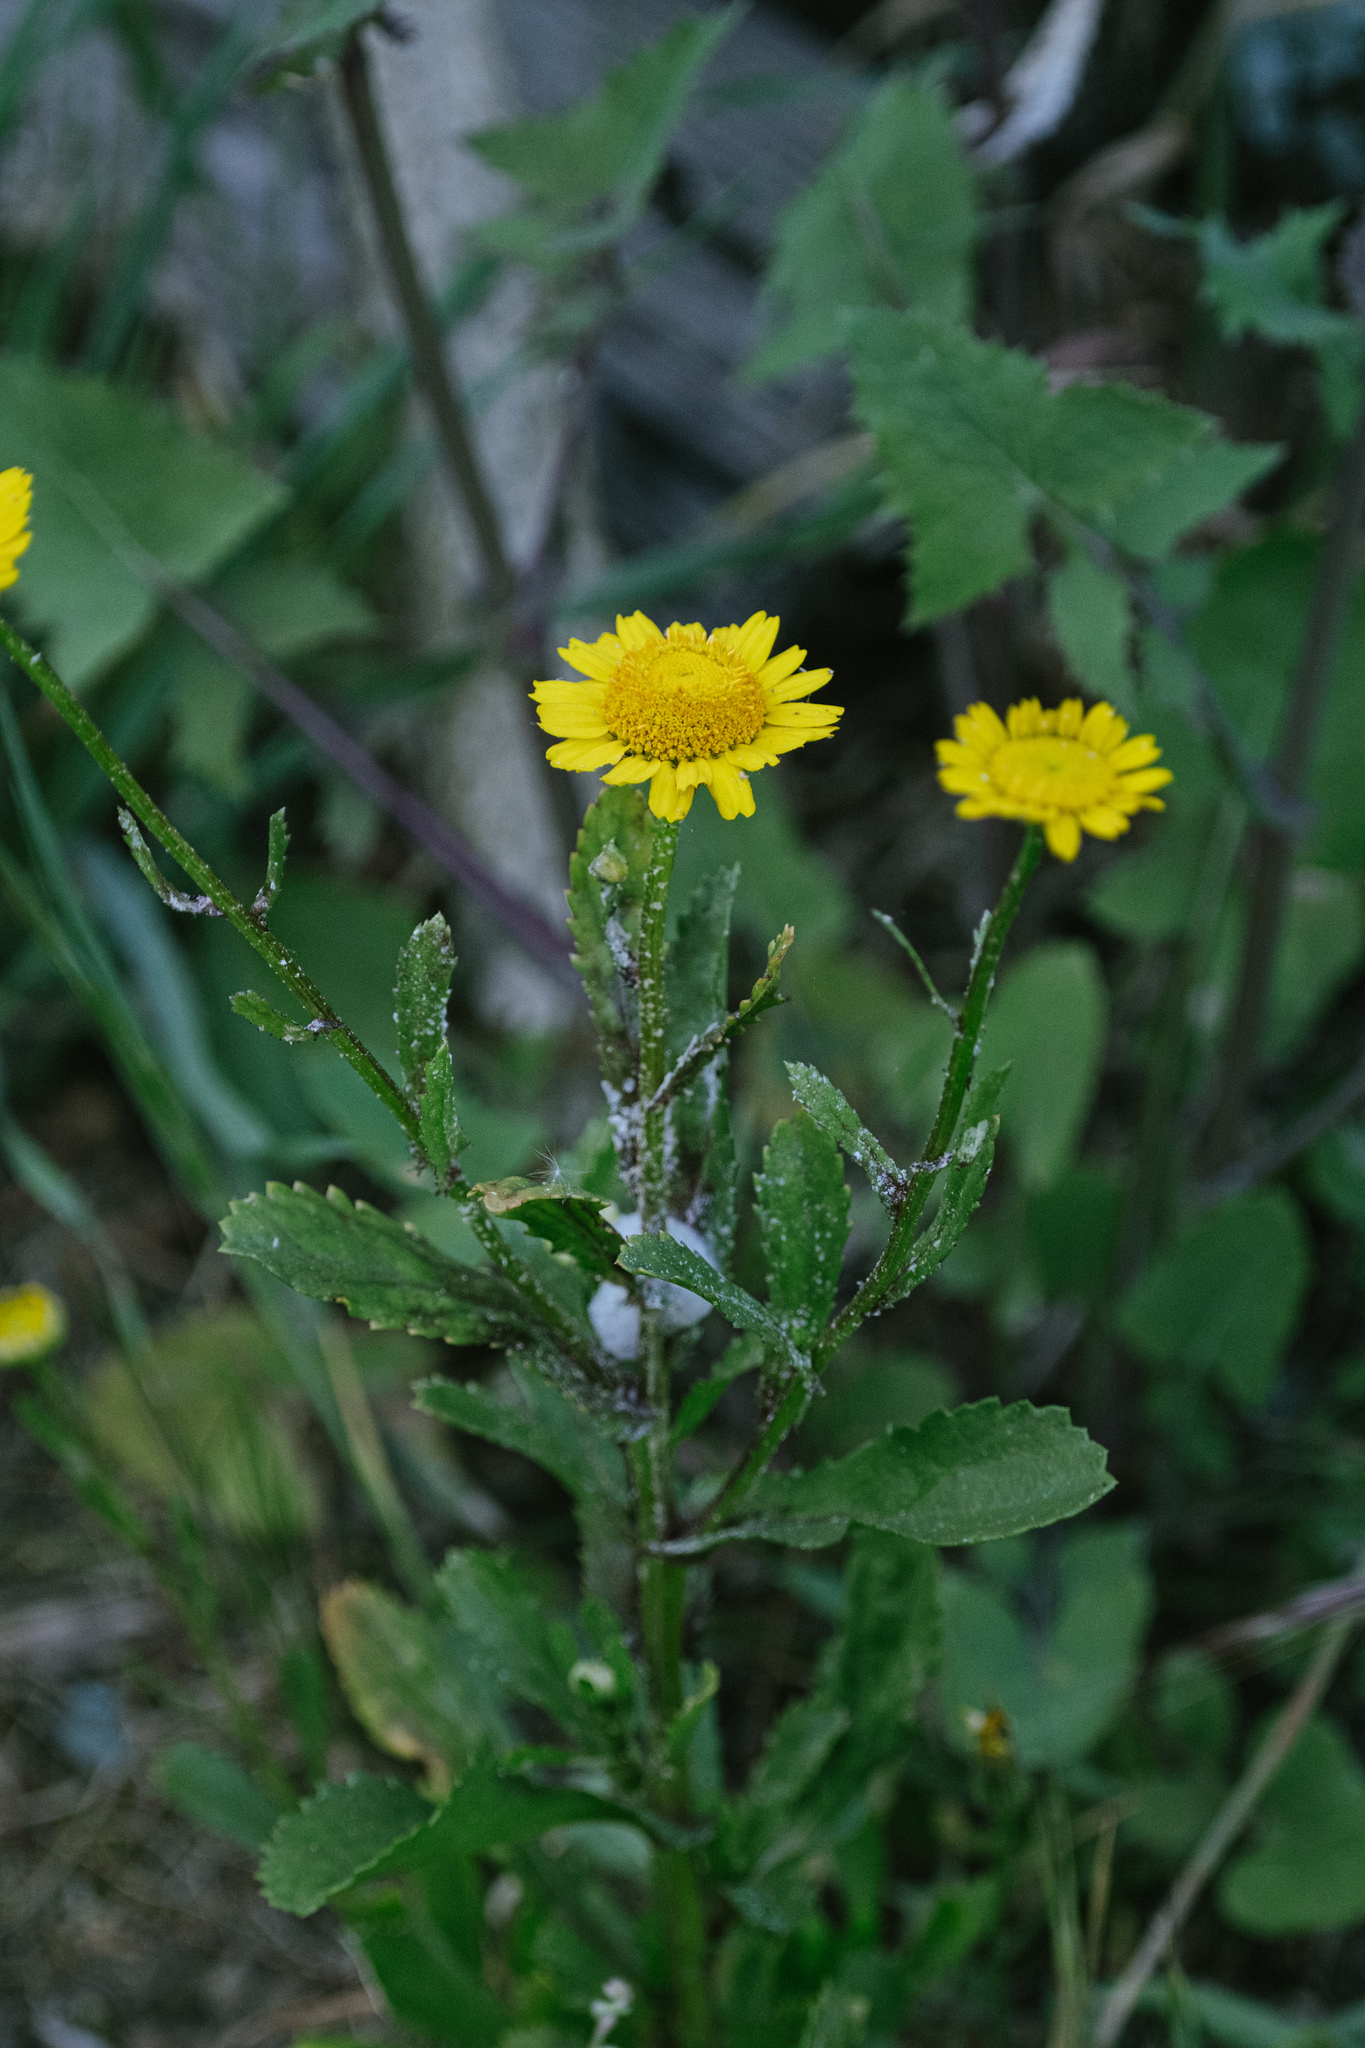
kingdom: Plantae
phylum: Tracheophyta
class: Magnoliopsida
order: Asterales
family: Asteraceae
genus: Coleostephus
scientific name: Coleostephus myconis
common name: Mediterranean marigold
